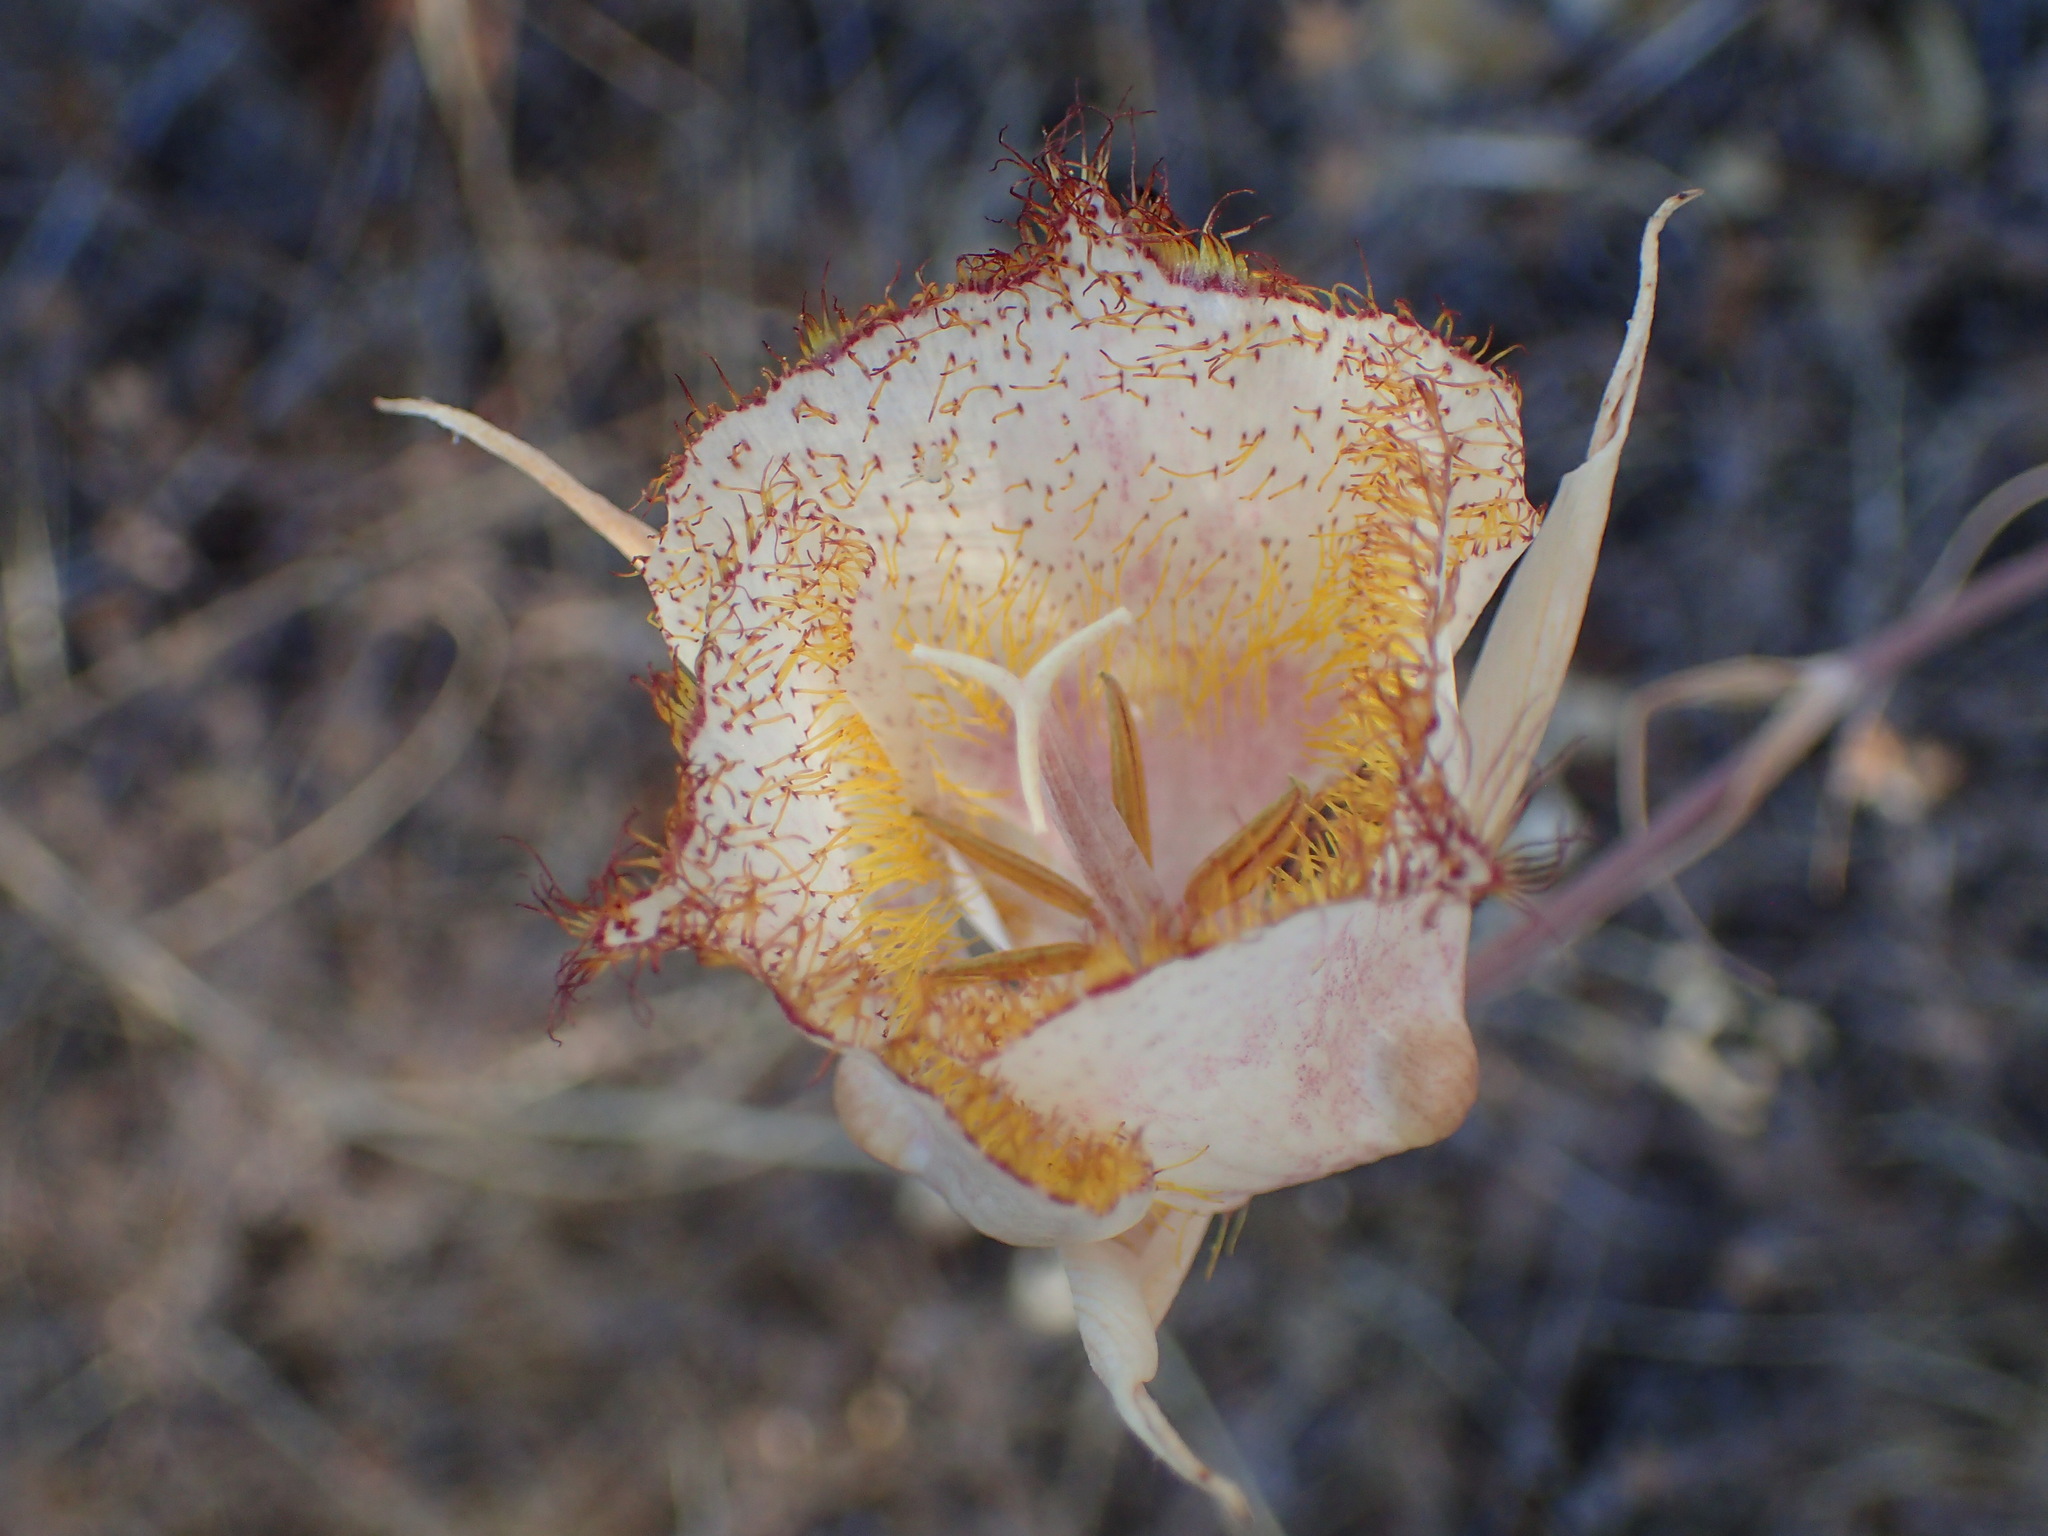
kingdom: Plantae
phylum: Tracheophyta
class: Liliopsida
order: Liliales
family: Liliaceae
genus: Calochortus
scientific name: Calochortus fimbriatus
